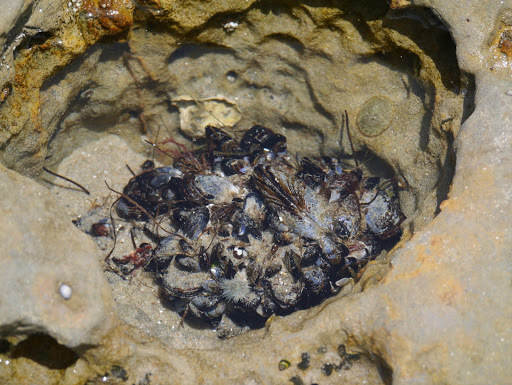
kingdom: Animalia
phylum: Mollusca
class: Bivalvia
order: Mytilida
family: Mytilidae
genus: Mytilus
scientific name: Mytilus californianus
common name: California mussel
